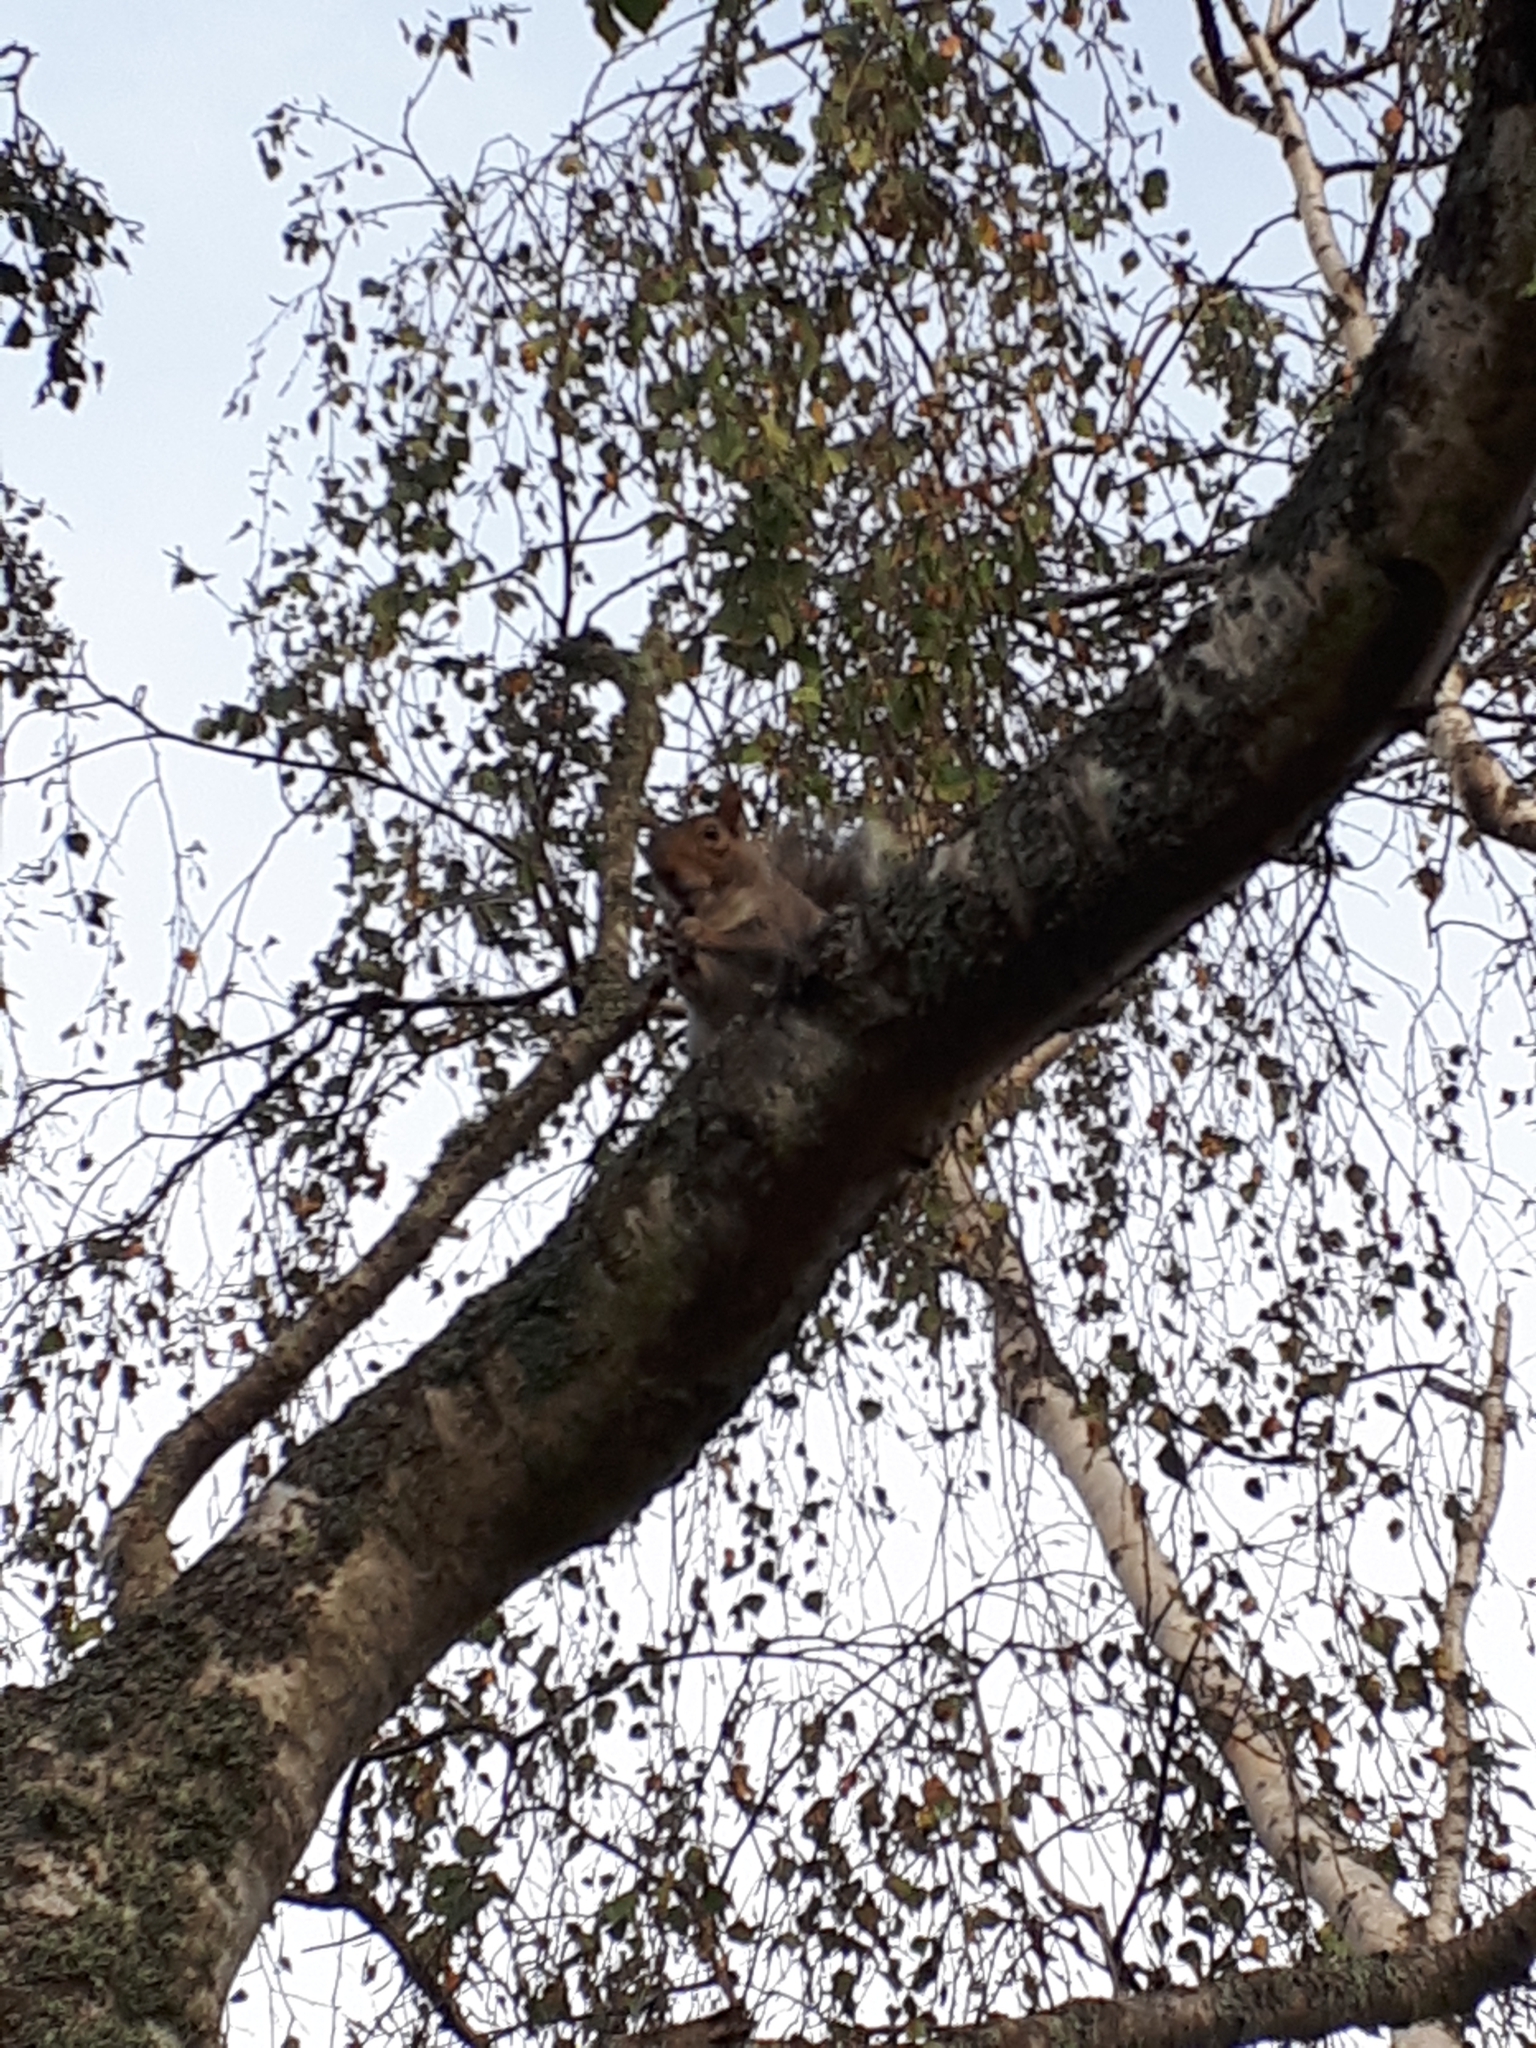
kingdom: Animalia
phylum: Chordata
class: Mammalia
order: Rodentia
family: Sciuridae
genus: Sciurus
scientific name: Sciurus carolinensis
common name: Eastern gray squirrel
